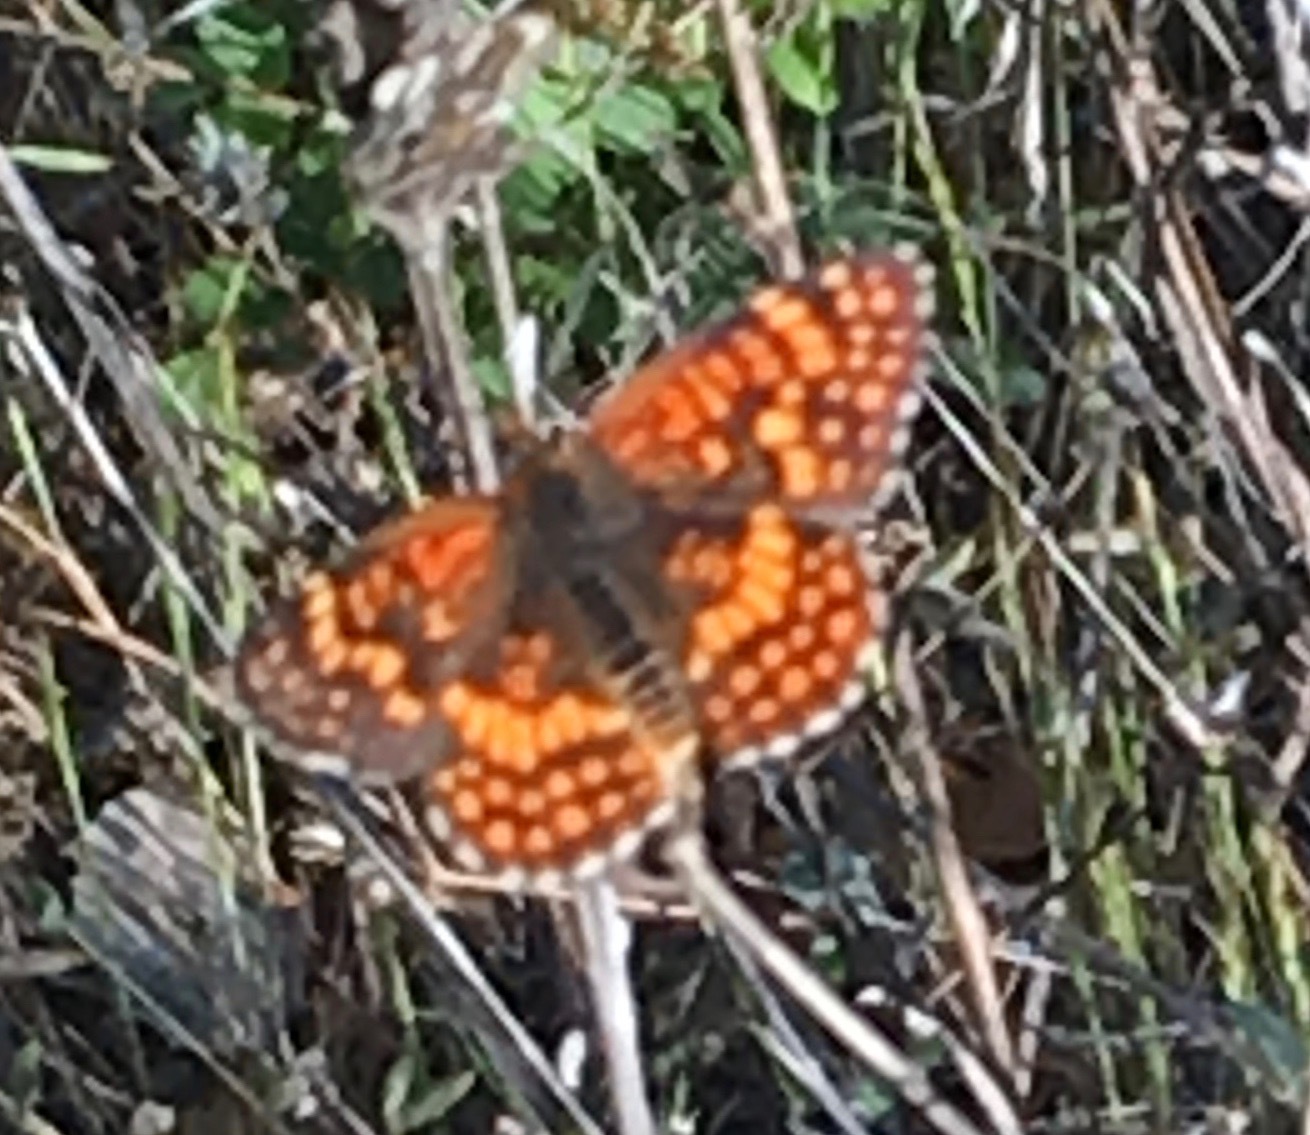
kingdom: Animalia
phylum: Arthropoda
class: Insecta
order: Lepidoptera
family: Nymphalidae
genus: Chlosyne
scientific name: Chlosyne gabbii
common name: Gabb's checkerspot
